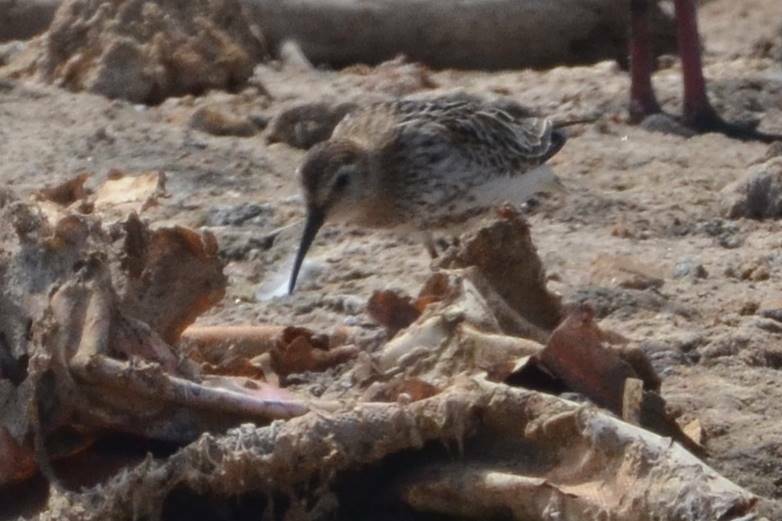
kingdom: Animalia
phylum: Chordata
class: Aves
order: Charadriiformes
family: Scolopacidae
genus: Calidris
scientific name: Calidris alpina
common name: Dunlin
